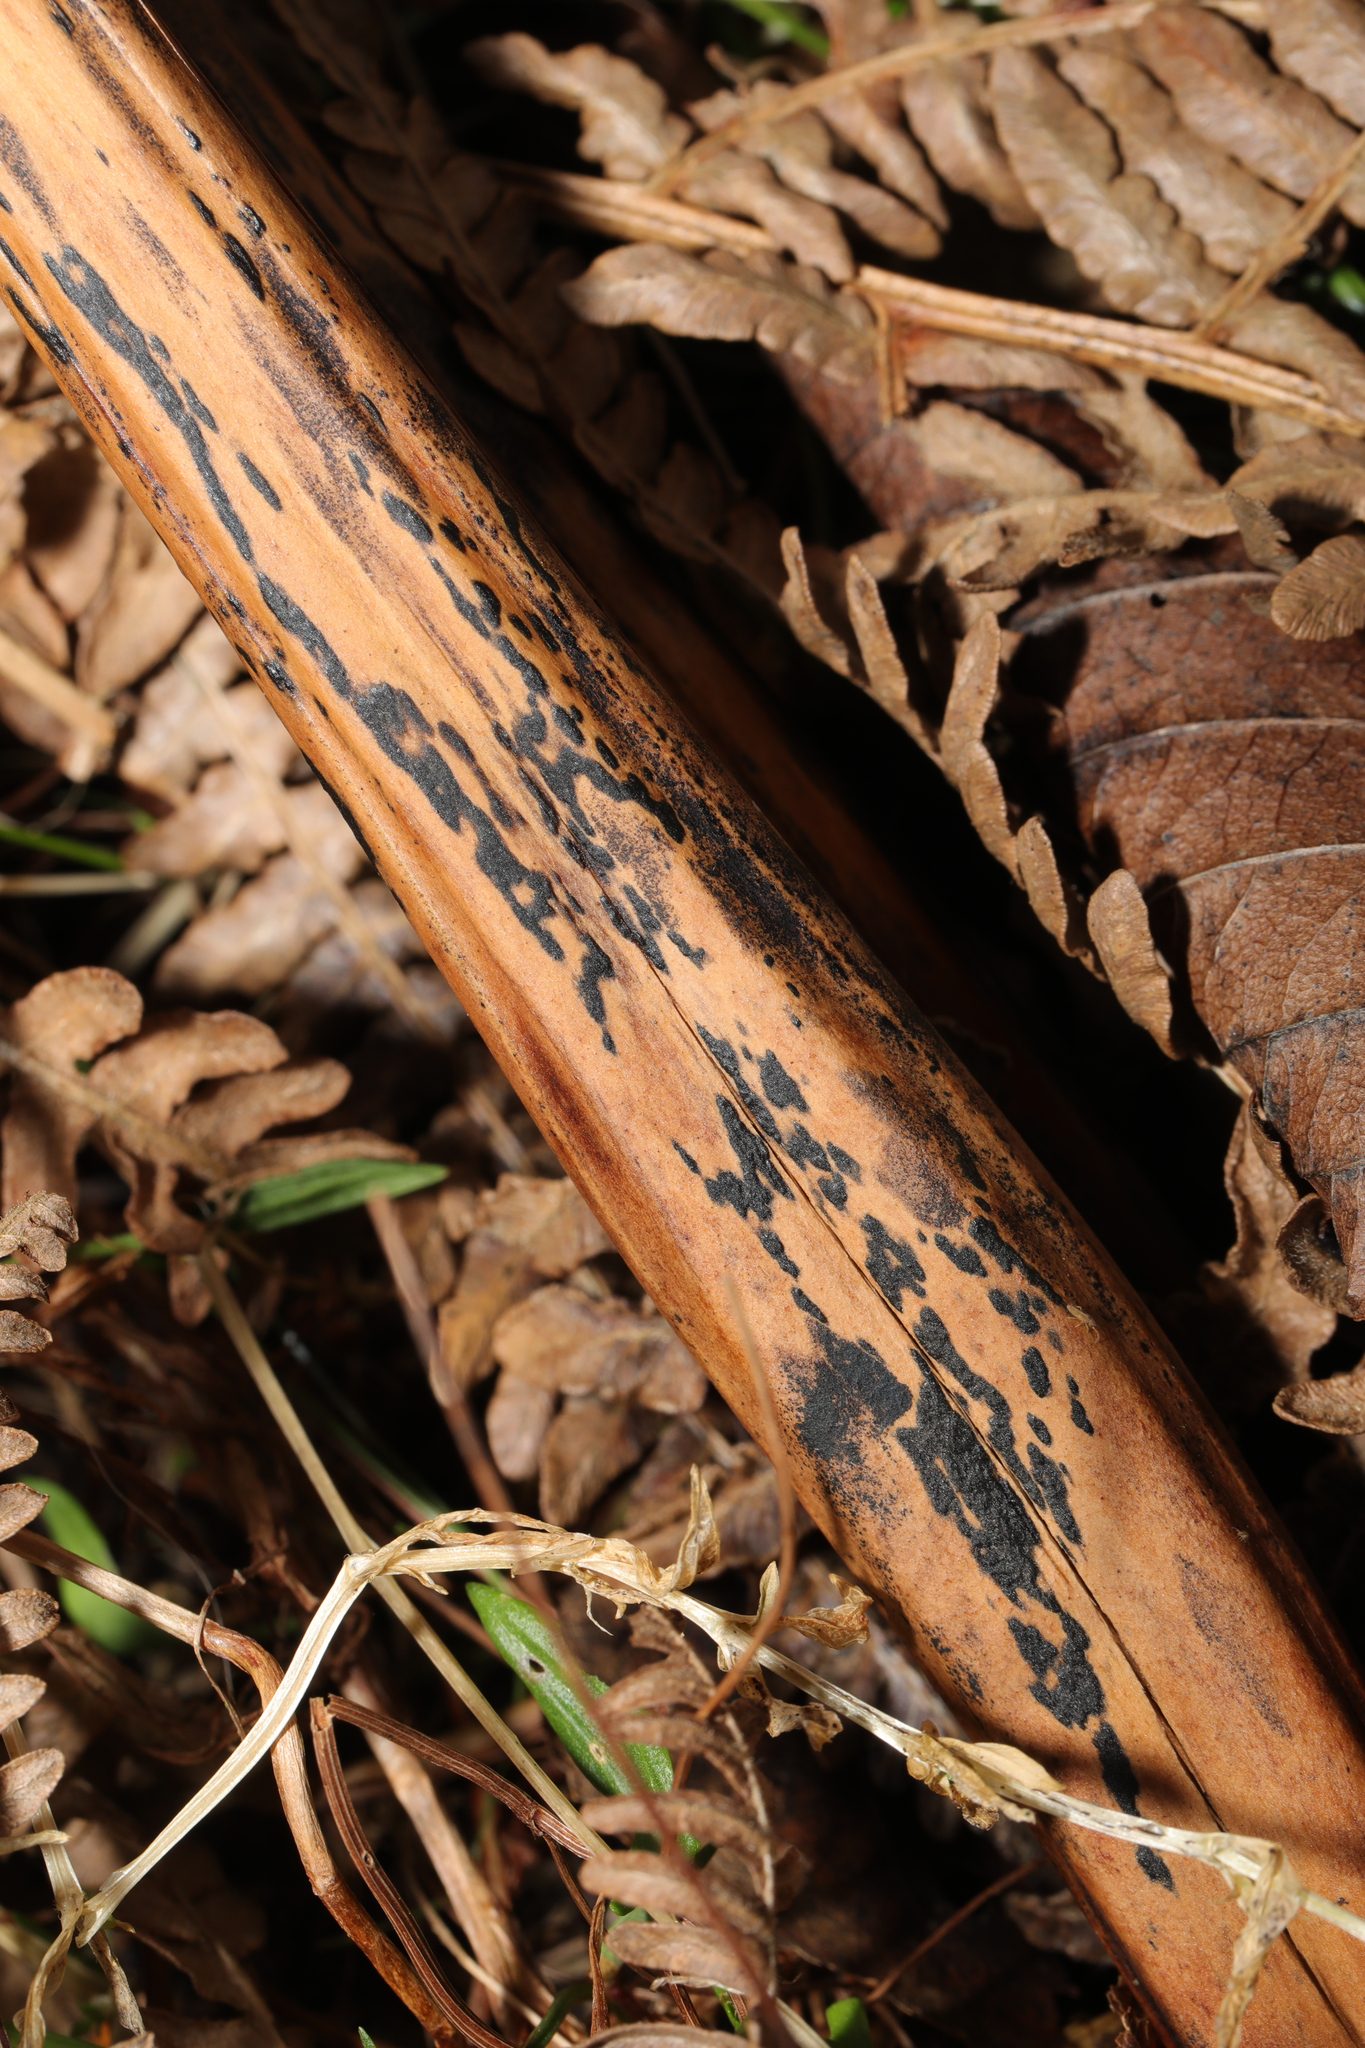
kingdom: Fungi
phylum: Ascomycota
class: Dothideomycetes
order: Pleosporales
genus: Rhopographus
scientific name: Rhopographus filicinus
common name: Bracken map
